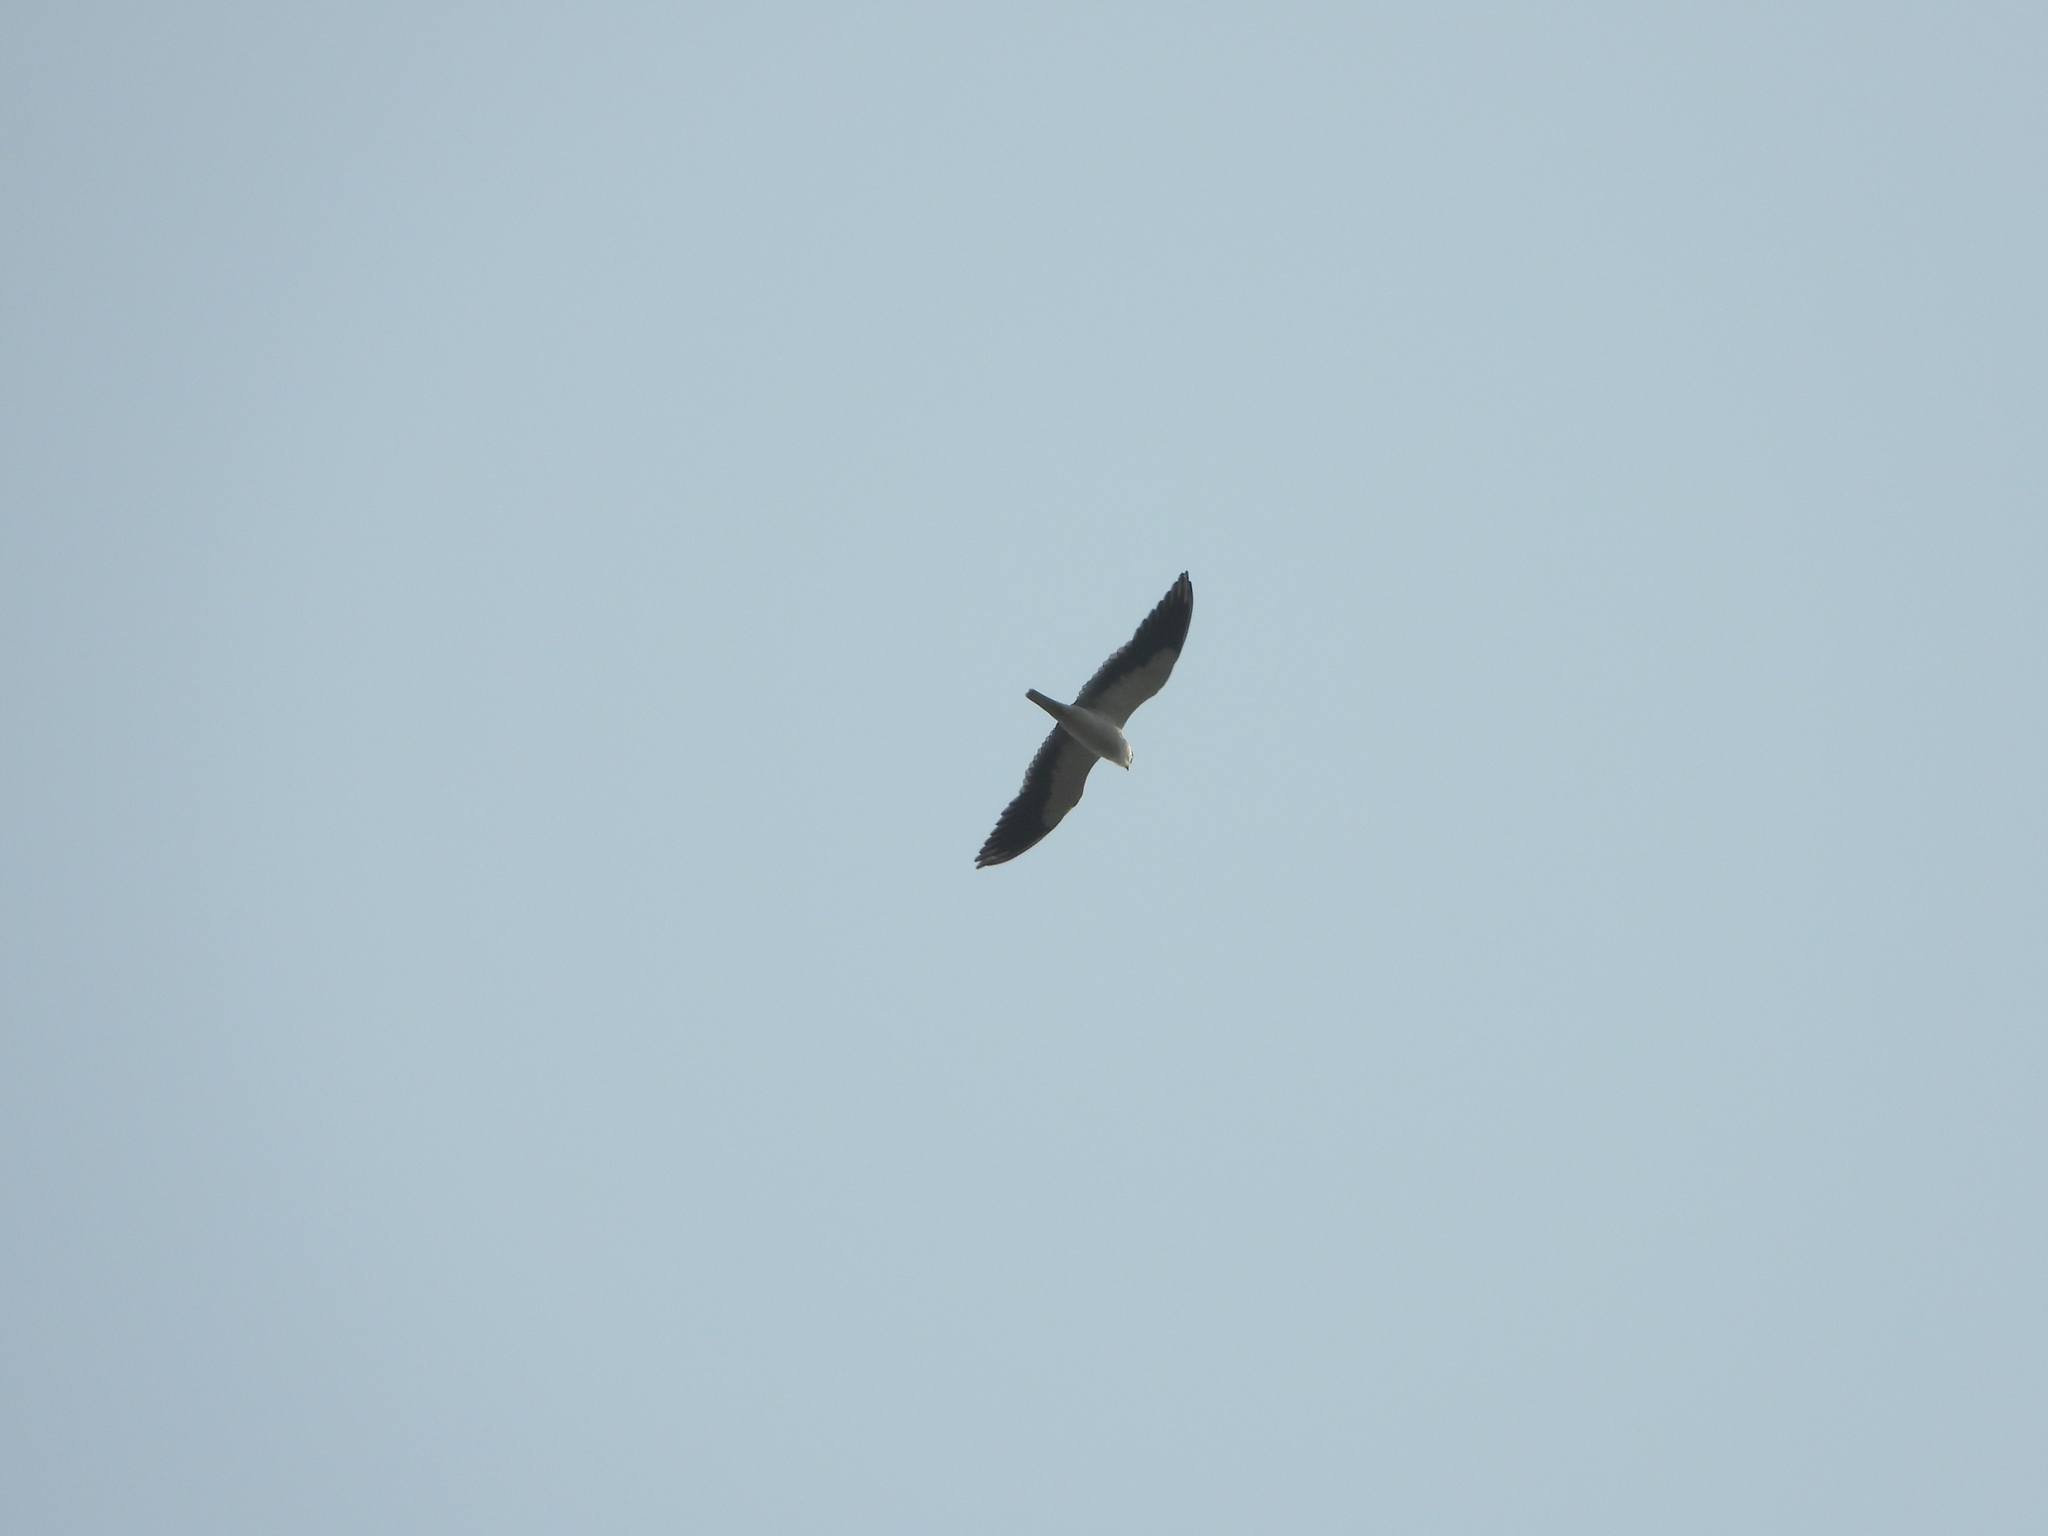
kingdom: Animalia
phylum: Chordata
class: Aves
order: Accipitriformes
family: Accipitridae
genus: Elanus
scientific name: Elanus caeruleus
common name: Black-winged kite
